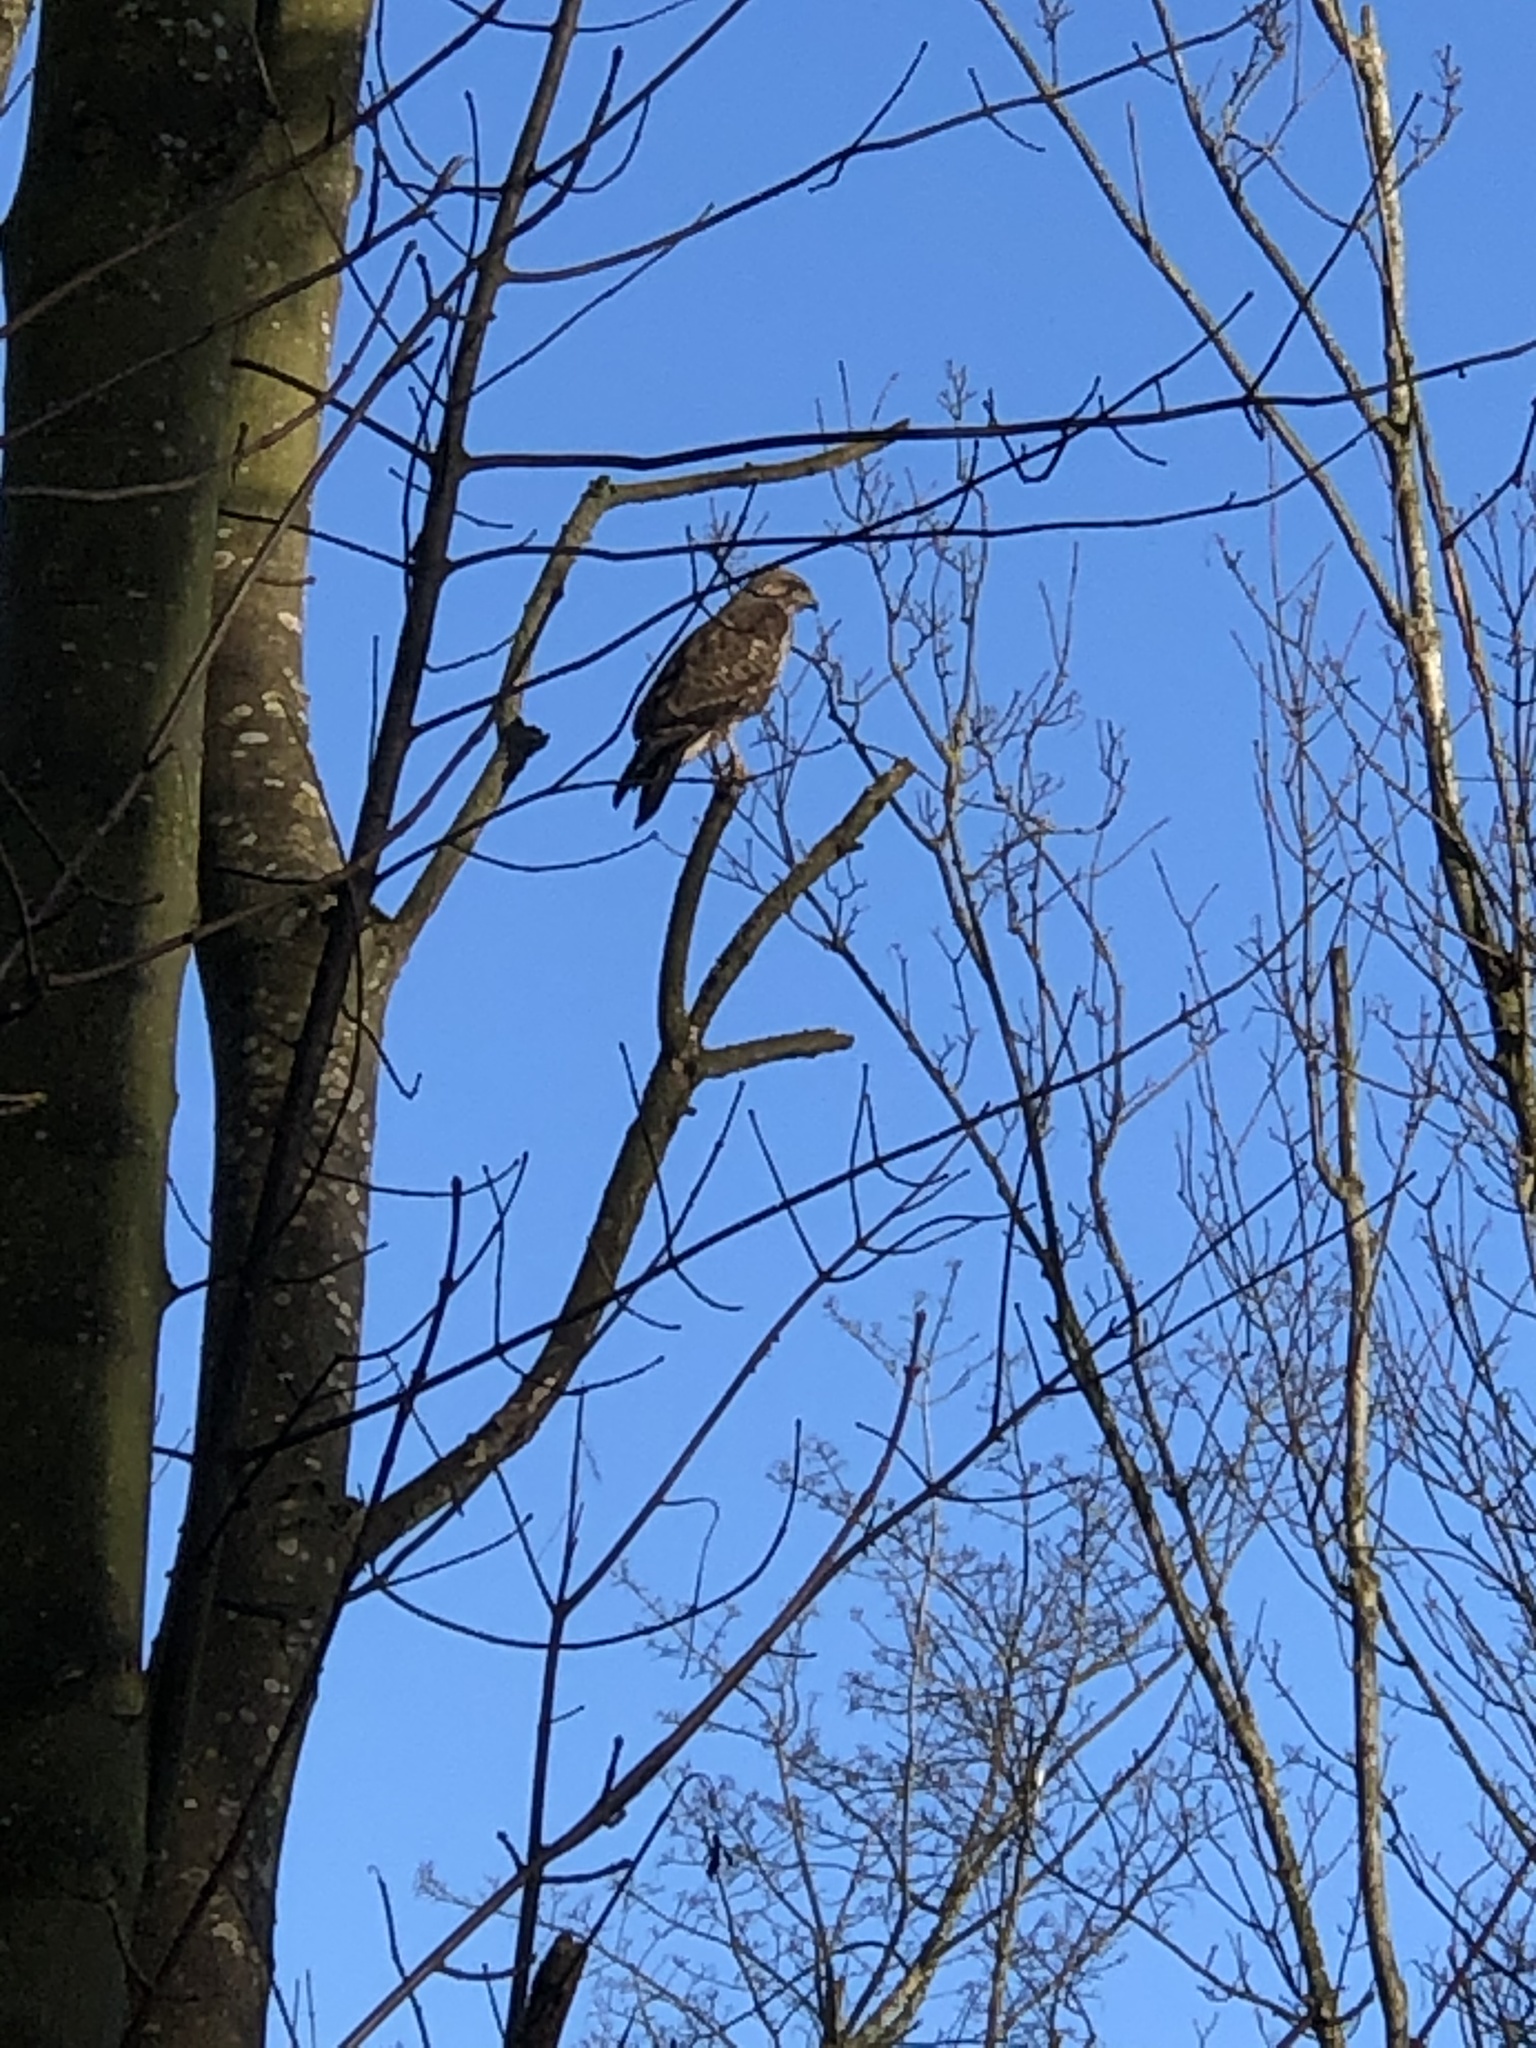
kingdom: Animalia
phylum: Chordata
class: Aves
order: Accipitriformes
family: Accipitridae
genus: Buteo
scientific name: Buteo buteo
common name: Common buzzard
